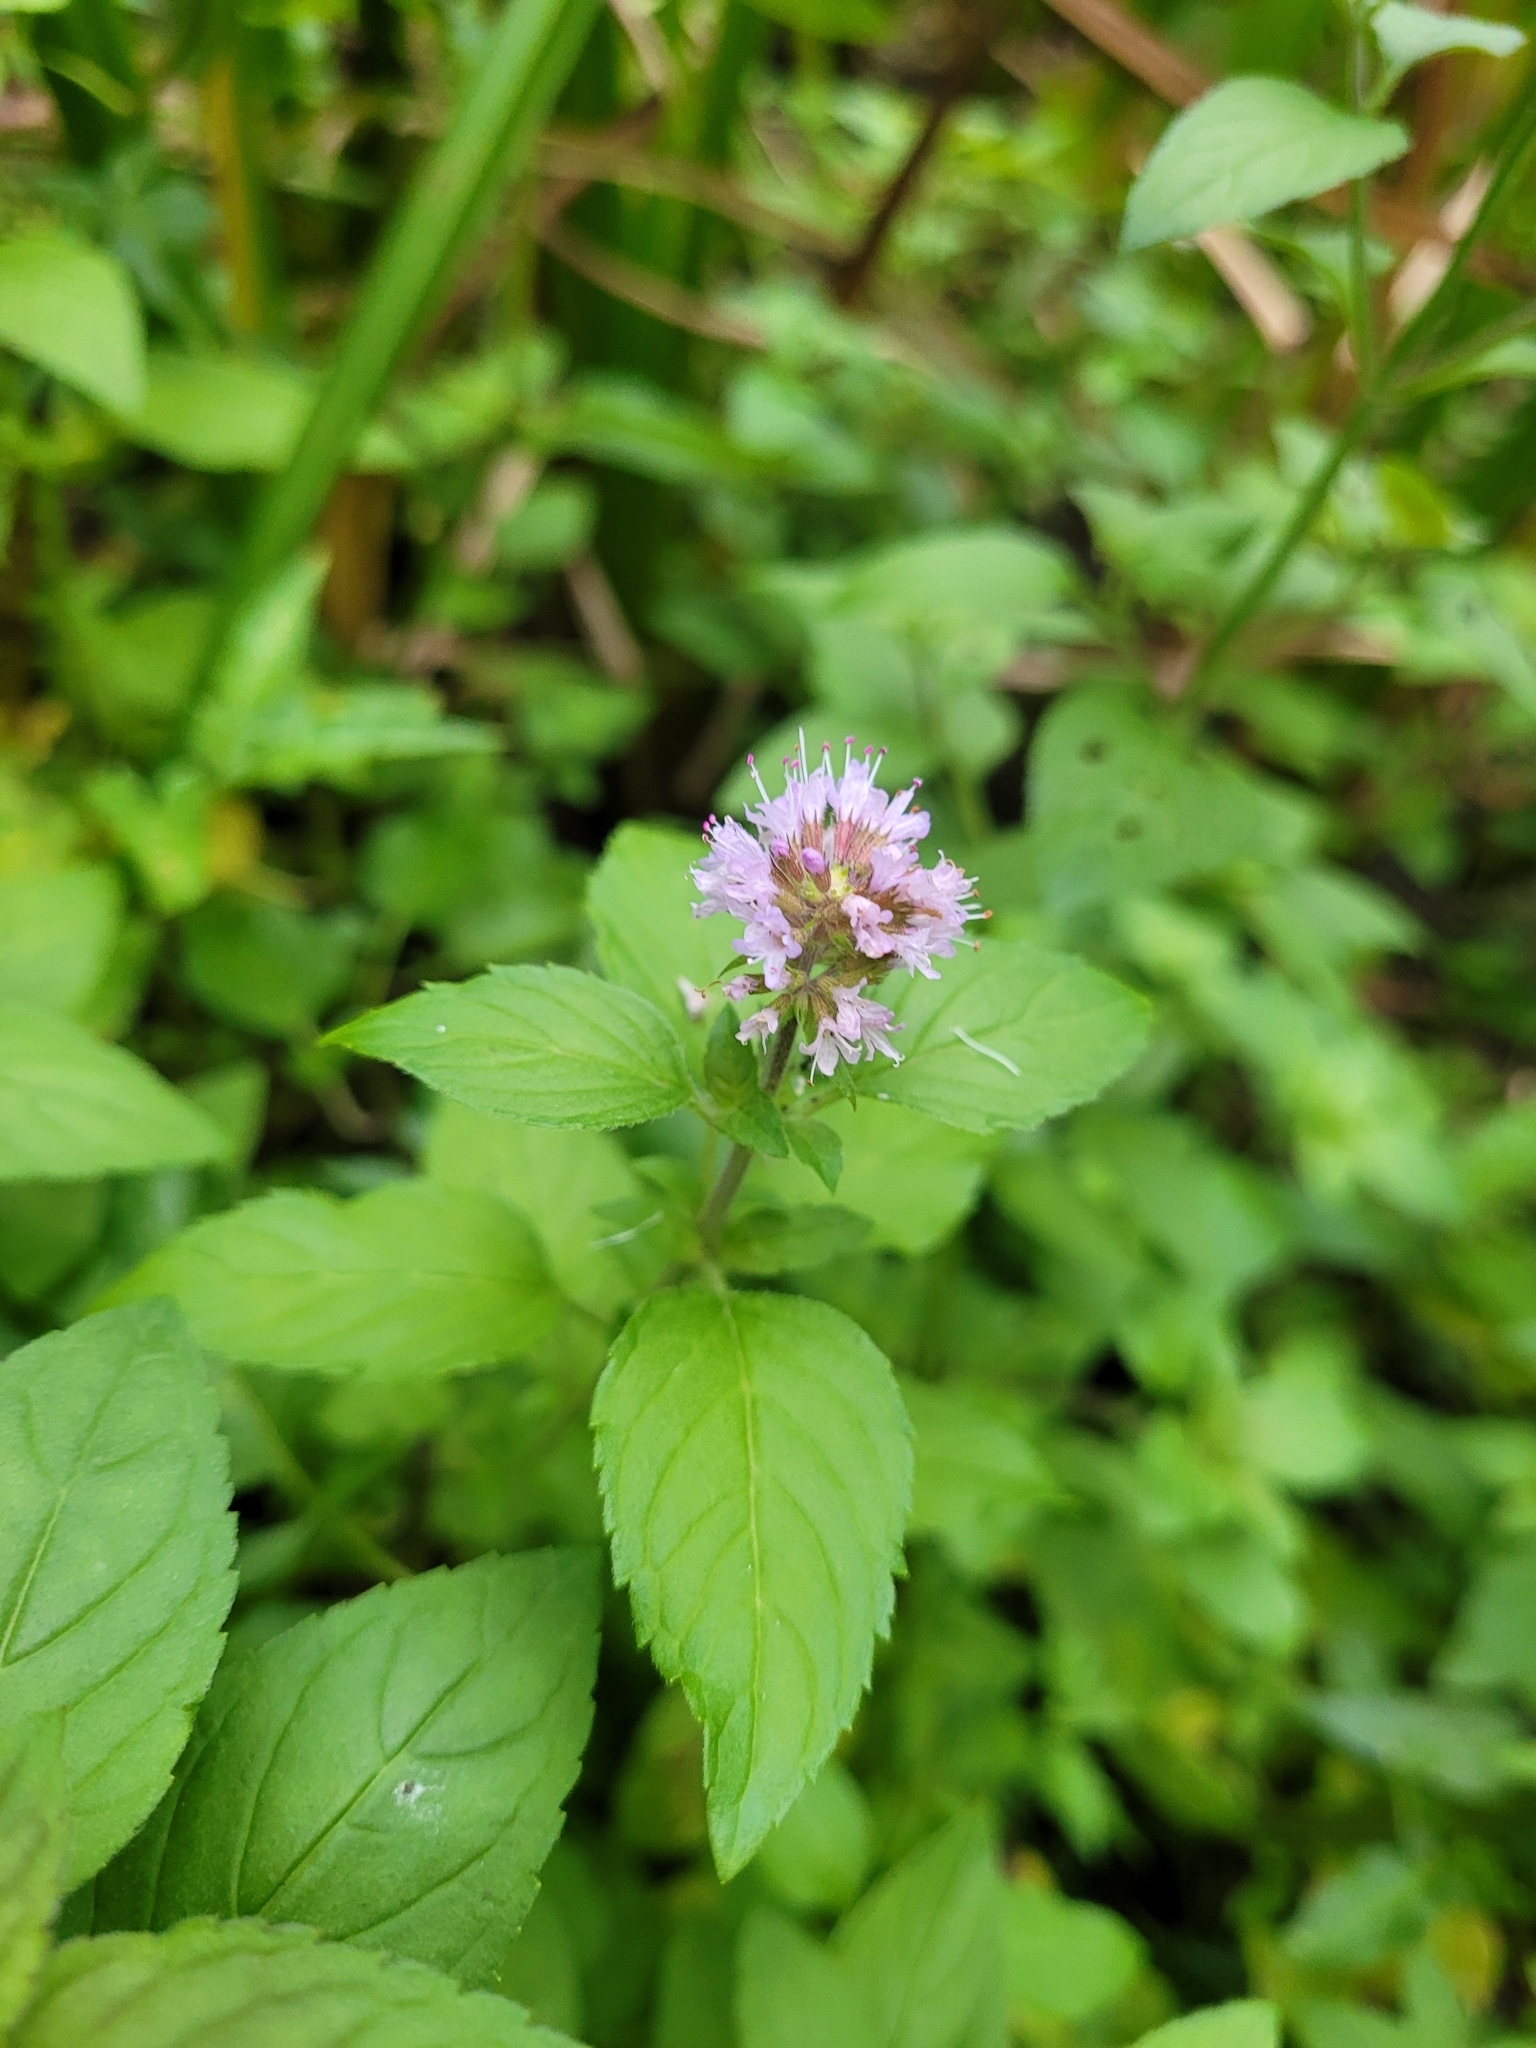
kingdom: Plantae
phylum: Tracheophyta
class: Magnoliopsida
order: Lamiales
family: Lamiaceae
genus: Mentha
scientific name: Mentha aquatica
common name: Water mint
